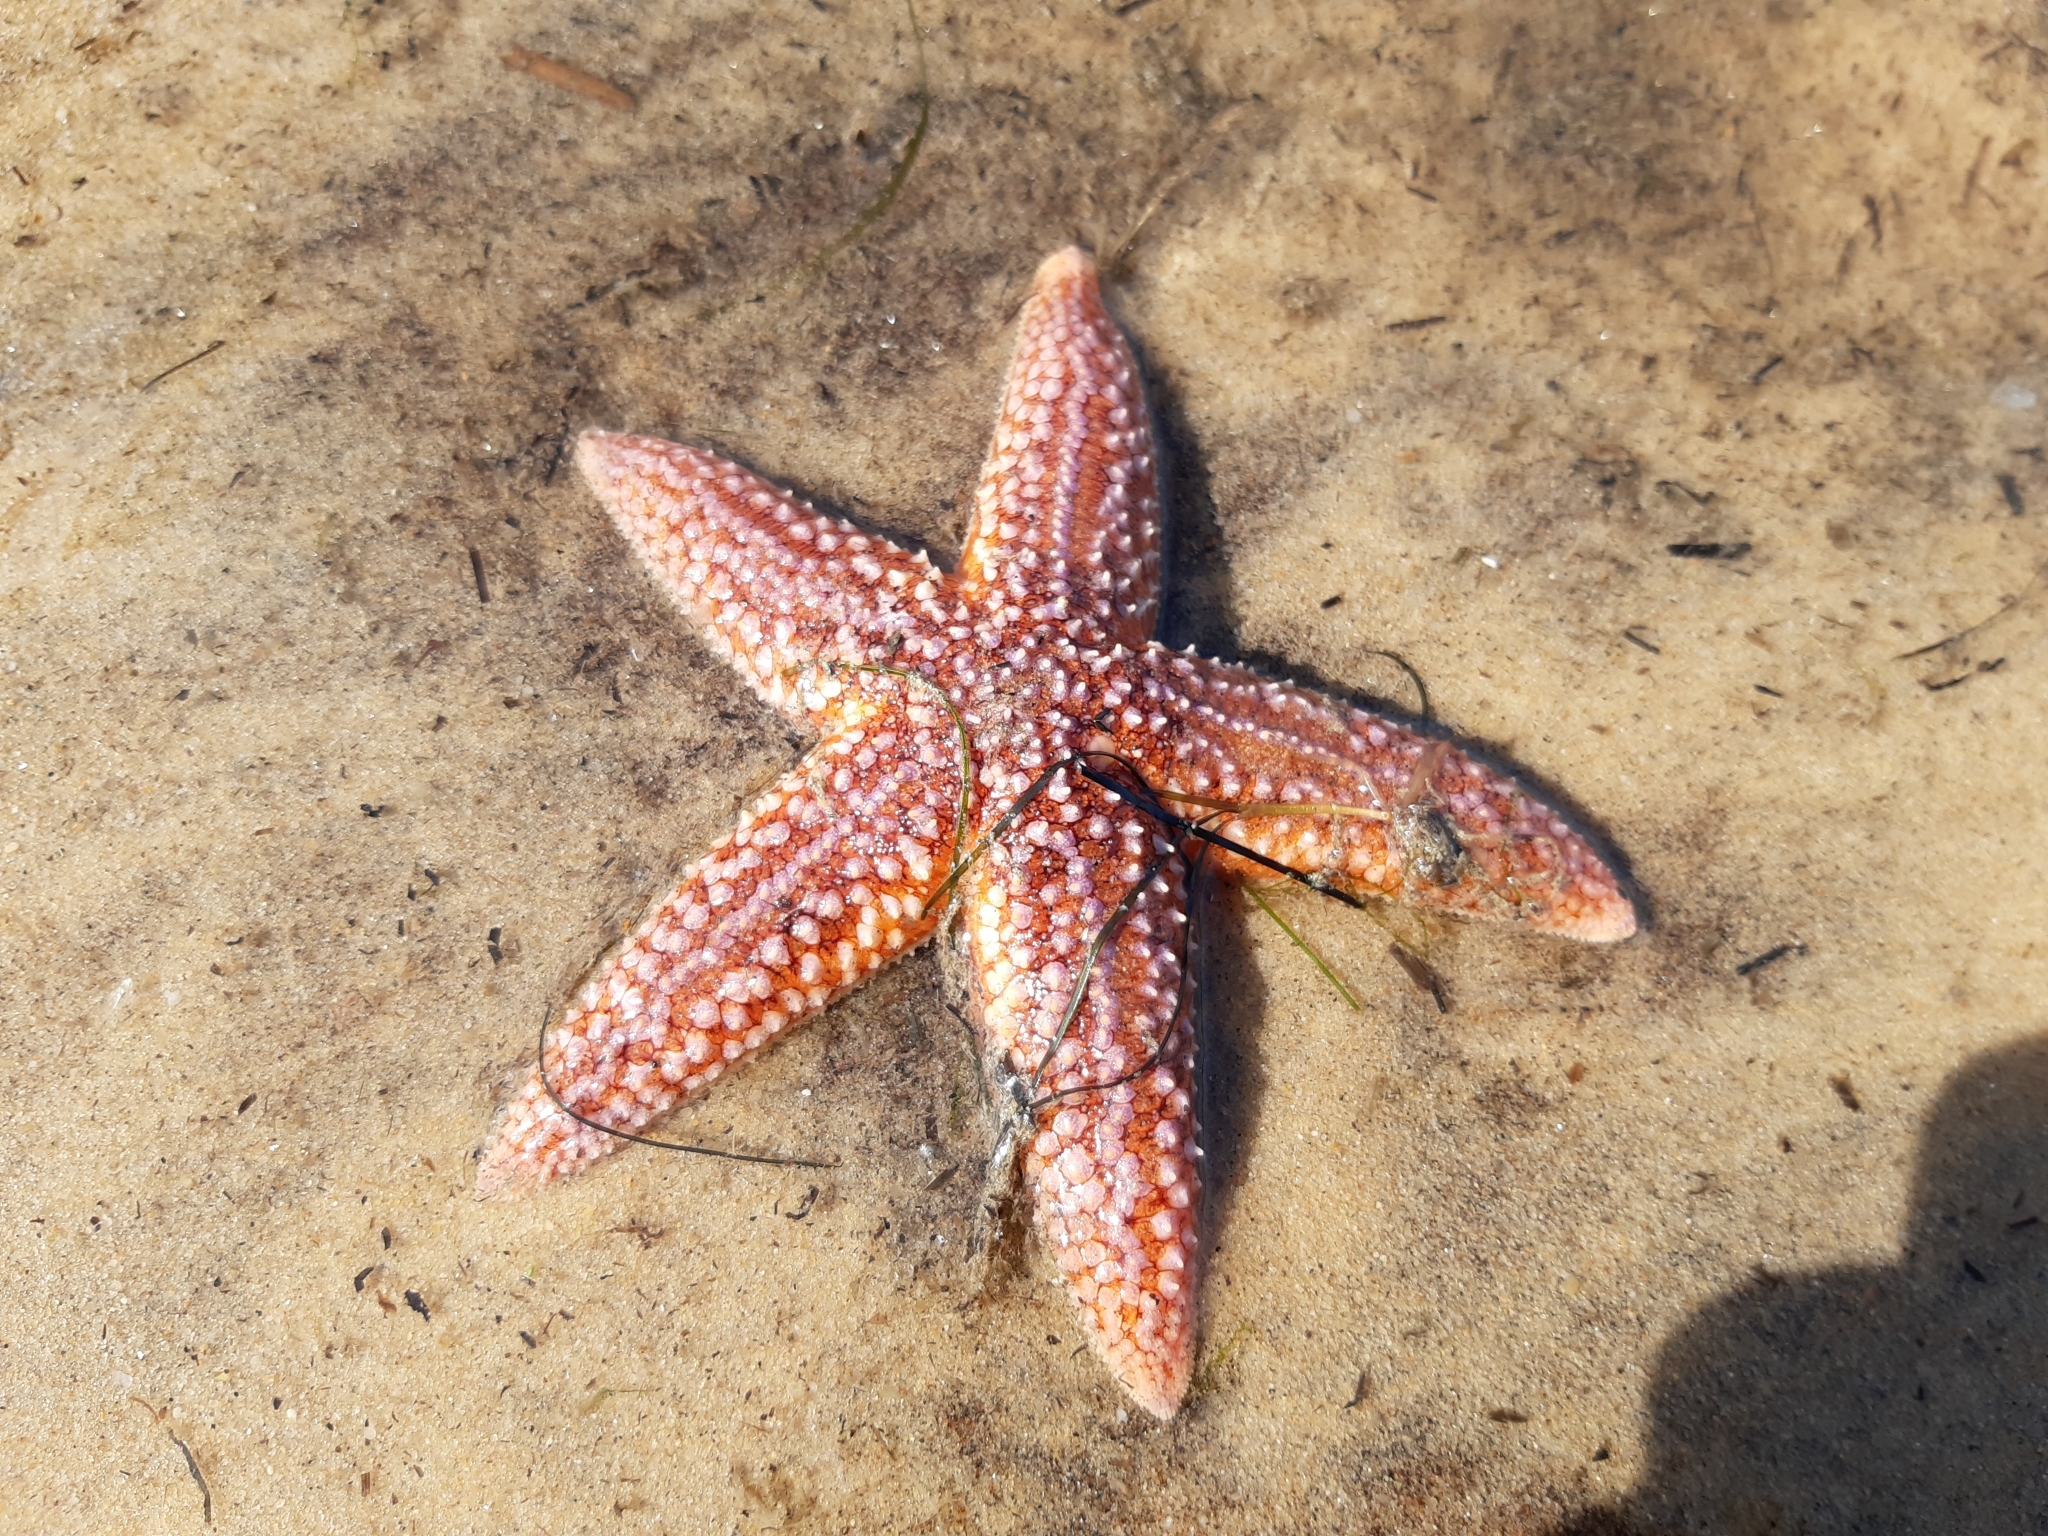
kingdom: Animalia
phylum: Echinodermata
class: Asteroidea
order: Forcipulatida
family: Asteriidae
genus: Asterias
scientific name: Asterias rubens
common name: Common starfish
